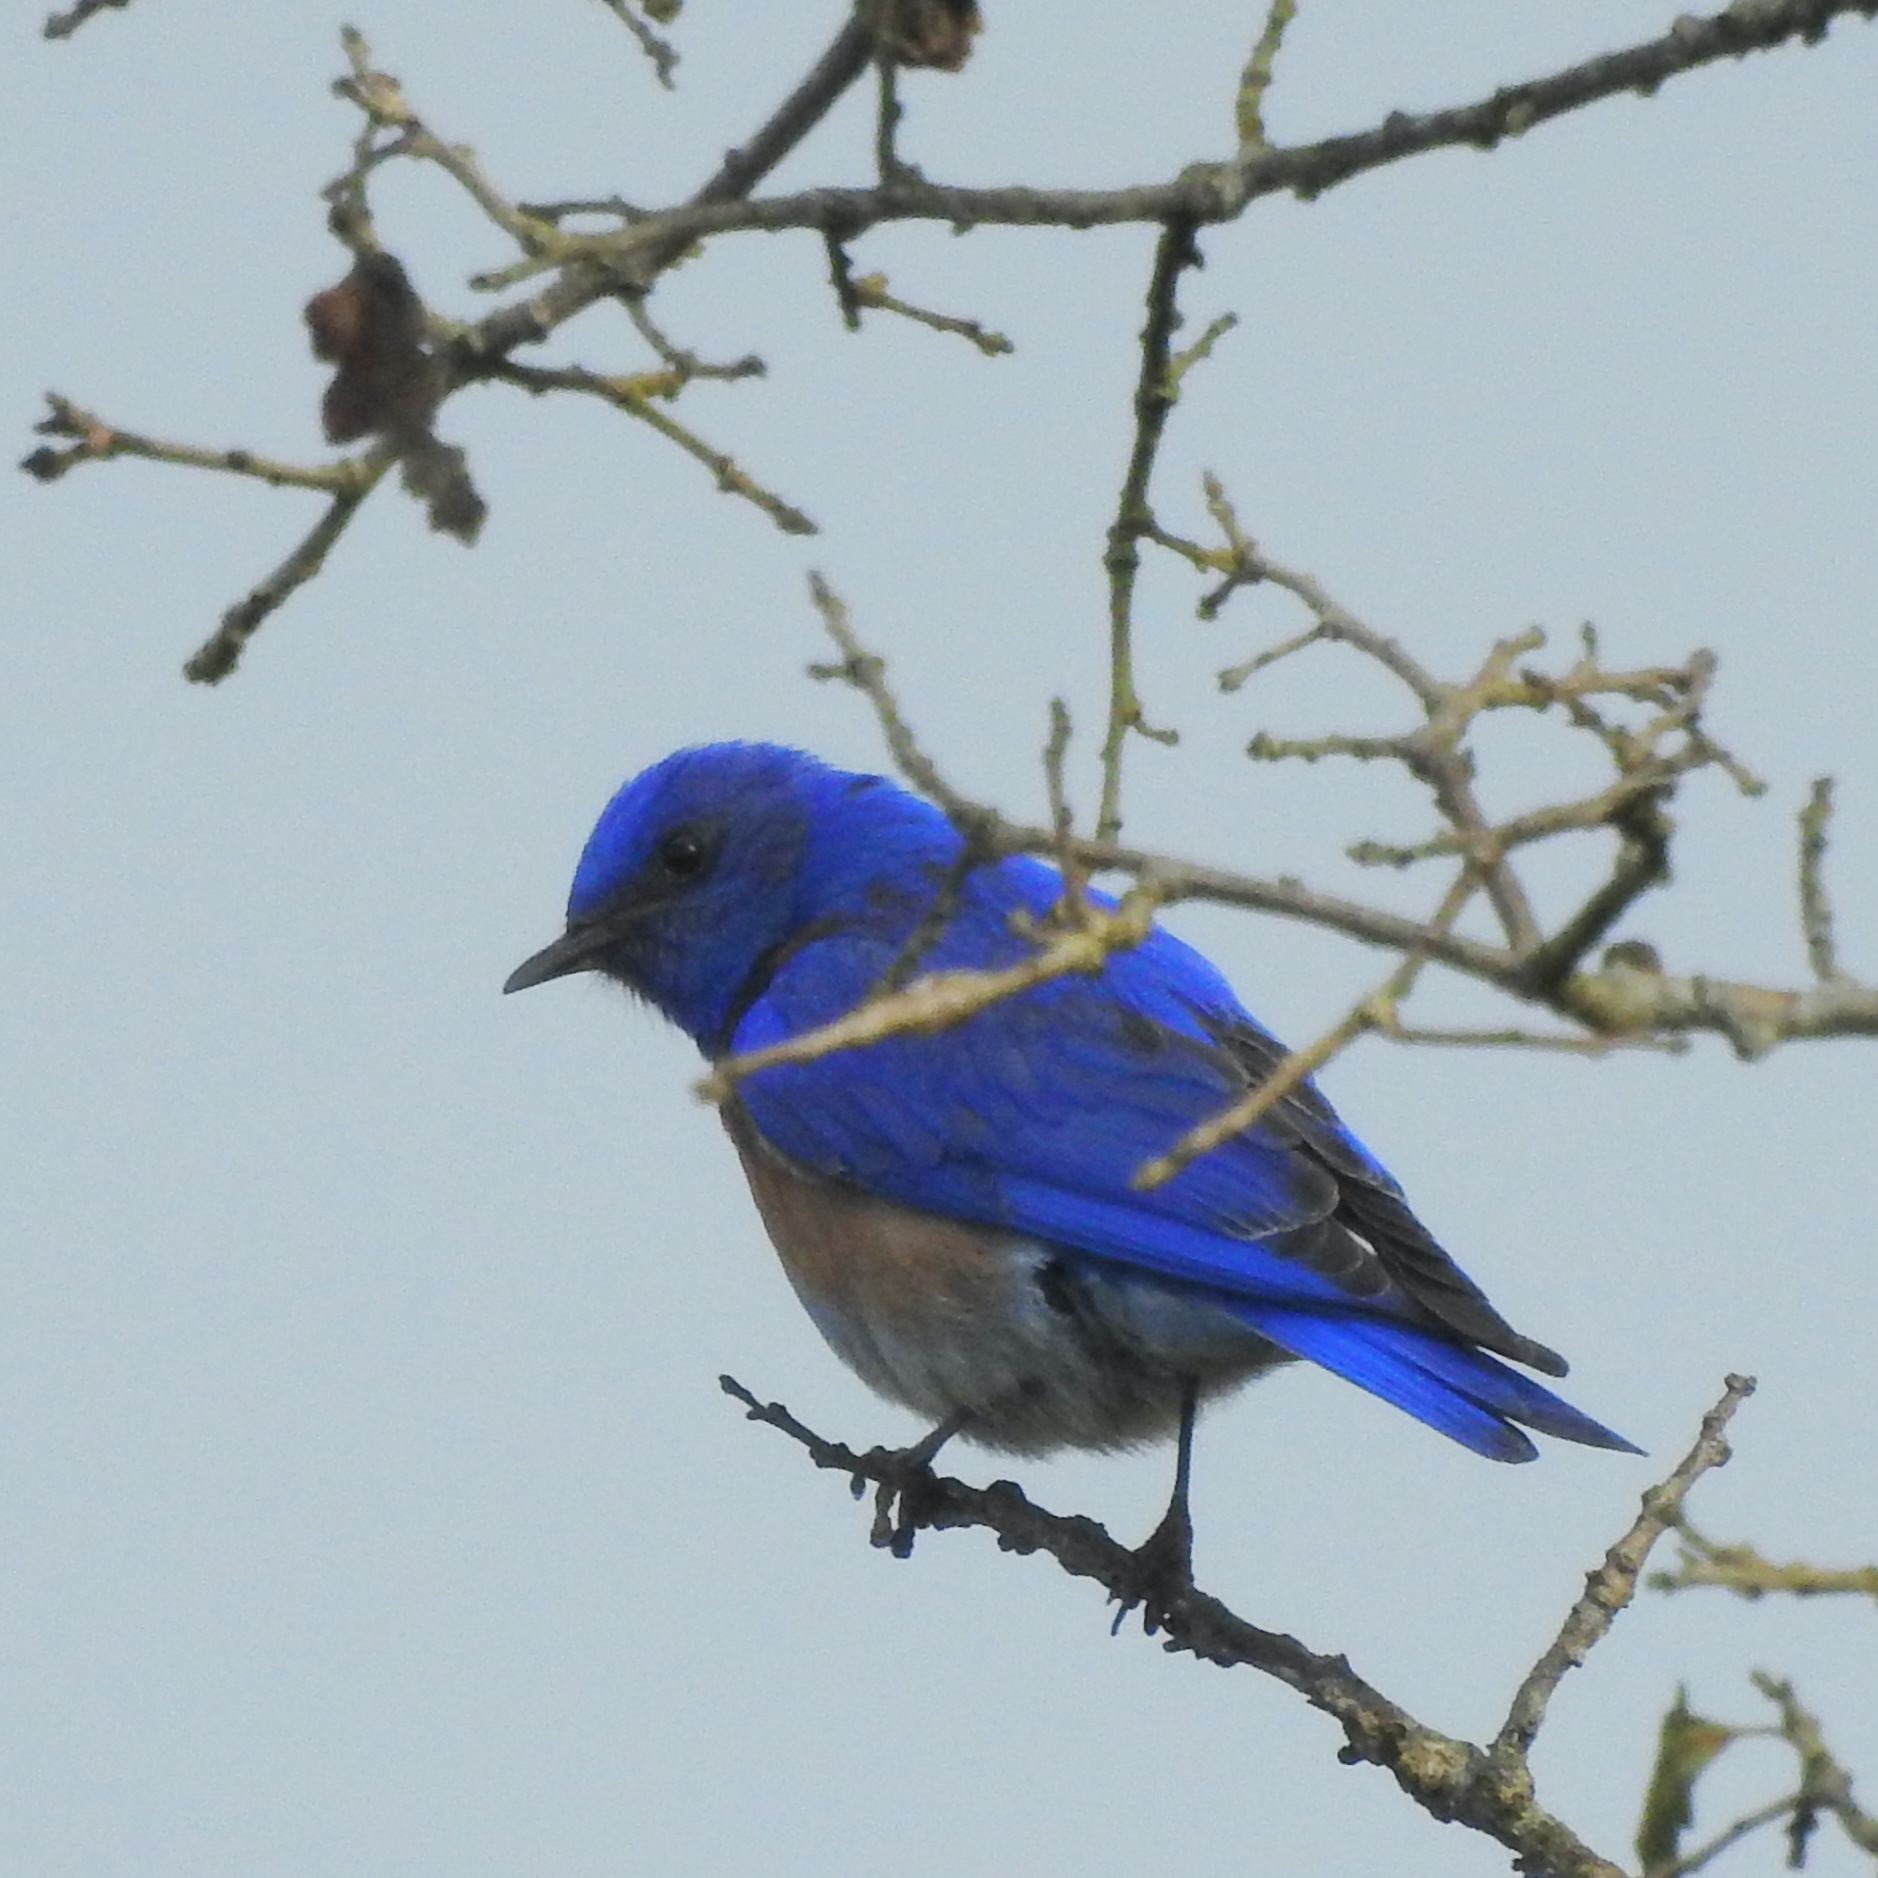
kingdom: Animalia
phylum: Chordata
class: Aves
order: Passeriformes
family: Turdidae
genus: Sialia
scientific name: Sialia mexicana
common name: Western bluebird
